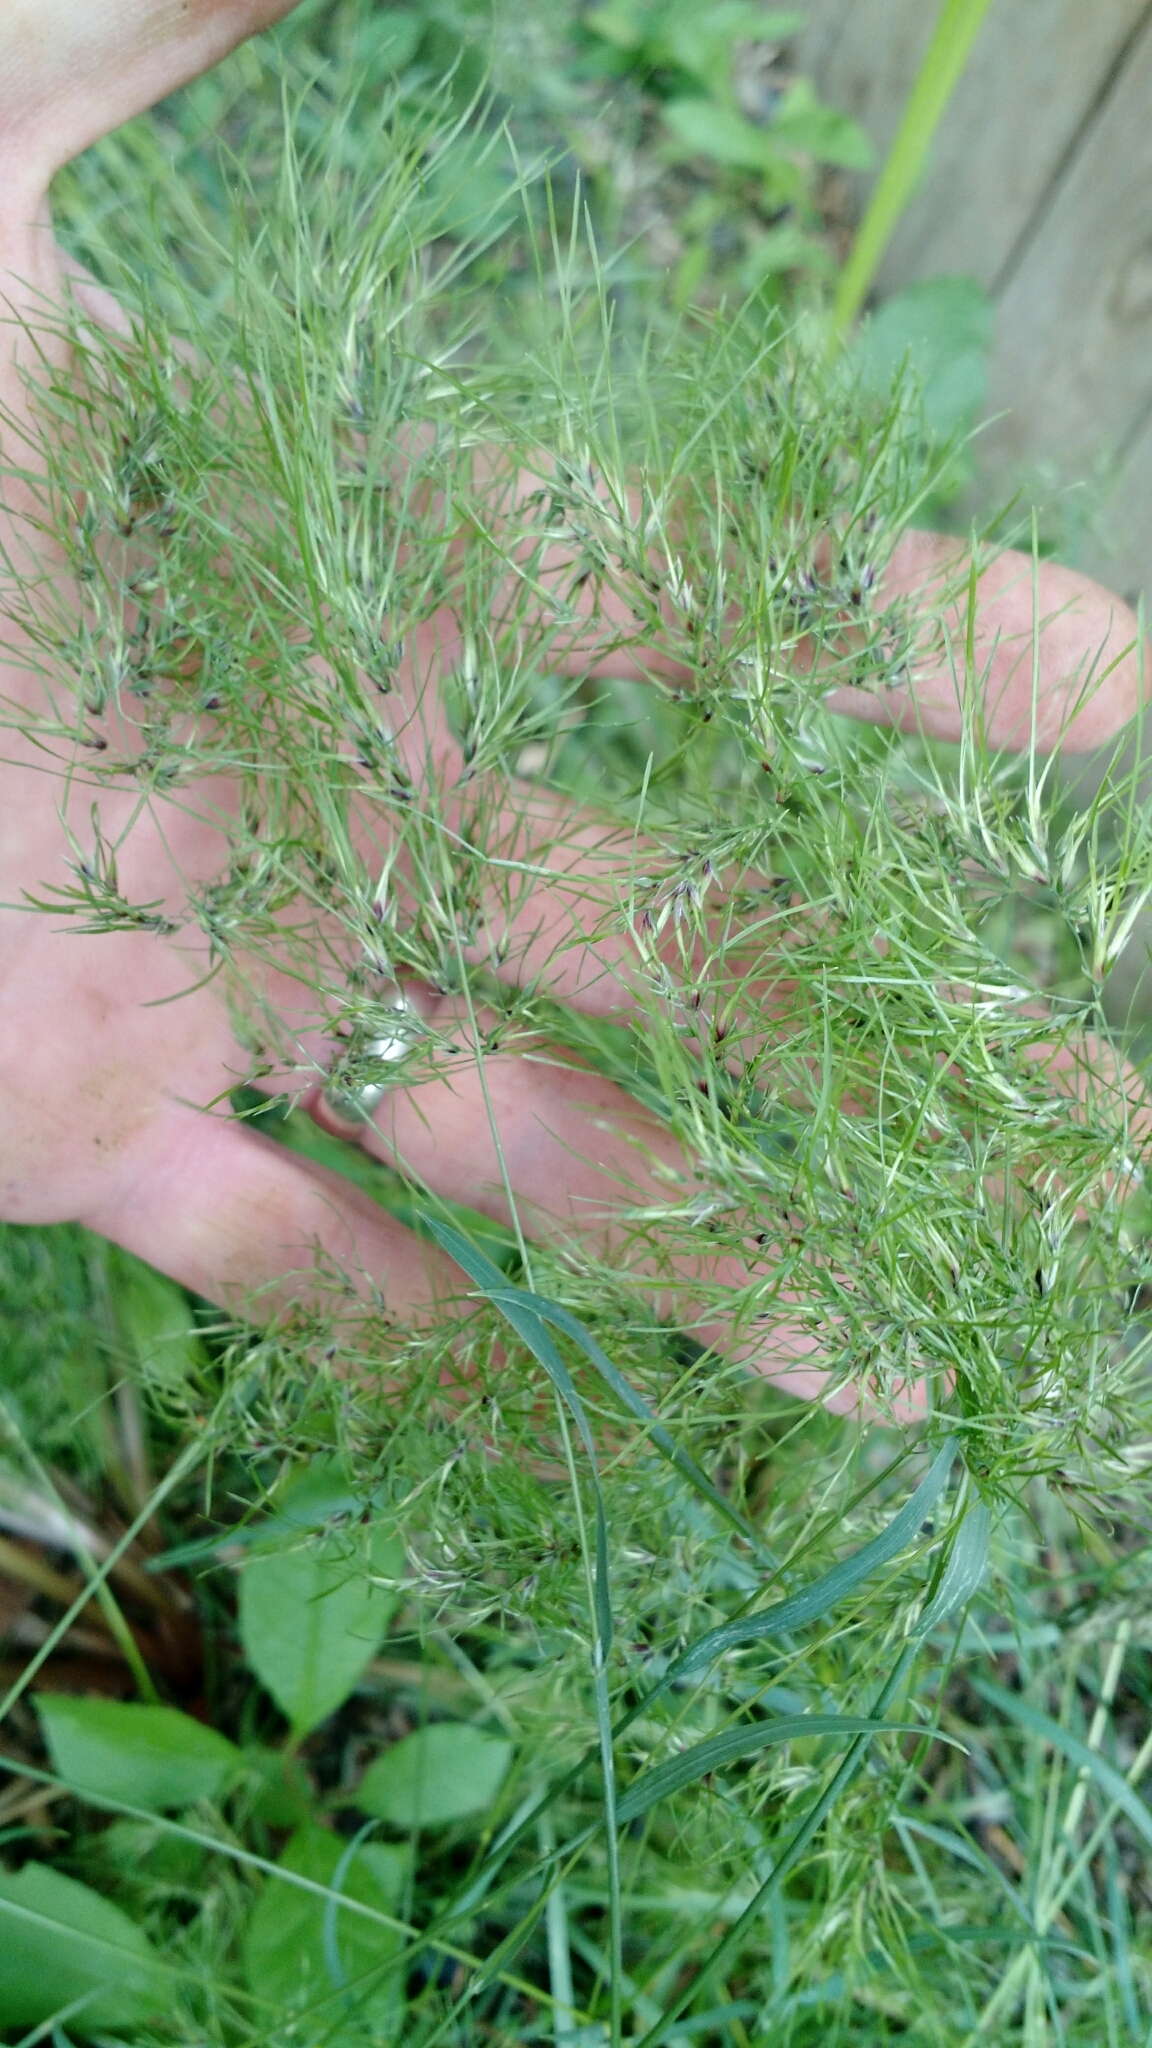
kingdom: Plantae
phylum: Tracheophyta
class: Liliopsida
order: Poales
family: Poaceae
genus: Poa
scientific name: Poa bulbosa
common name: Bulbous bluegrass
